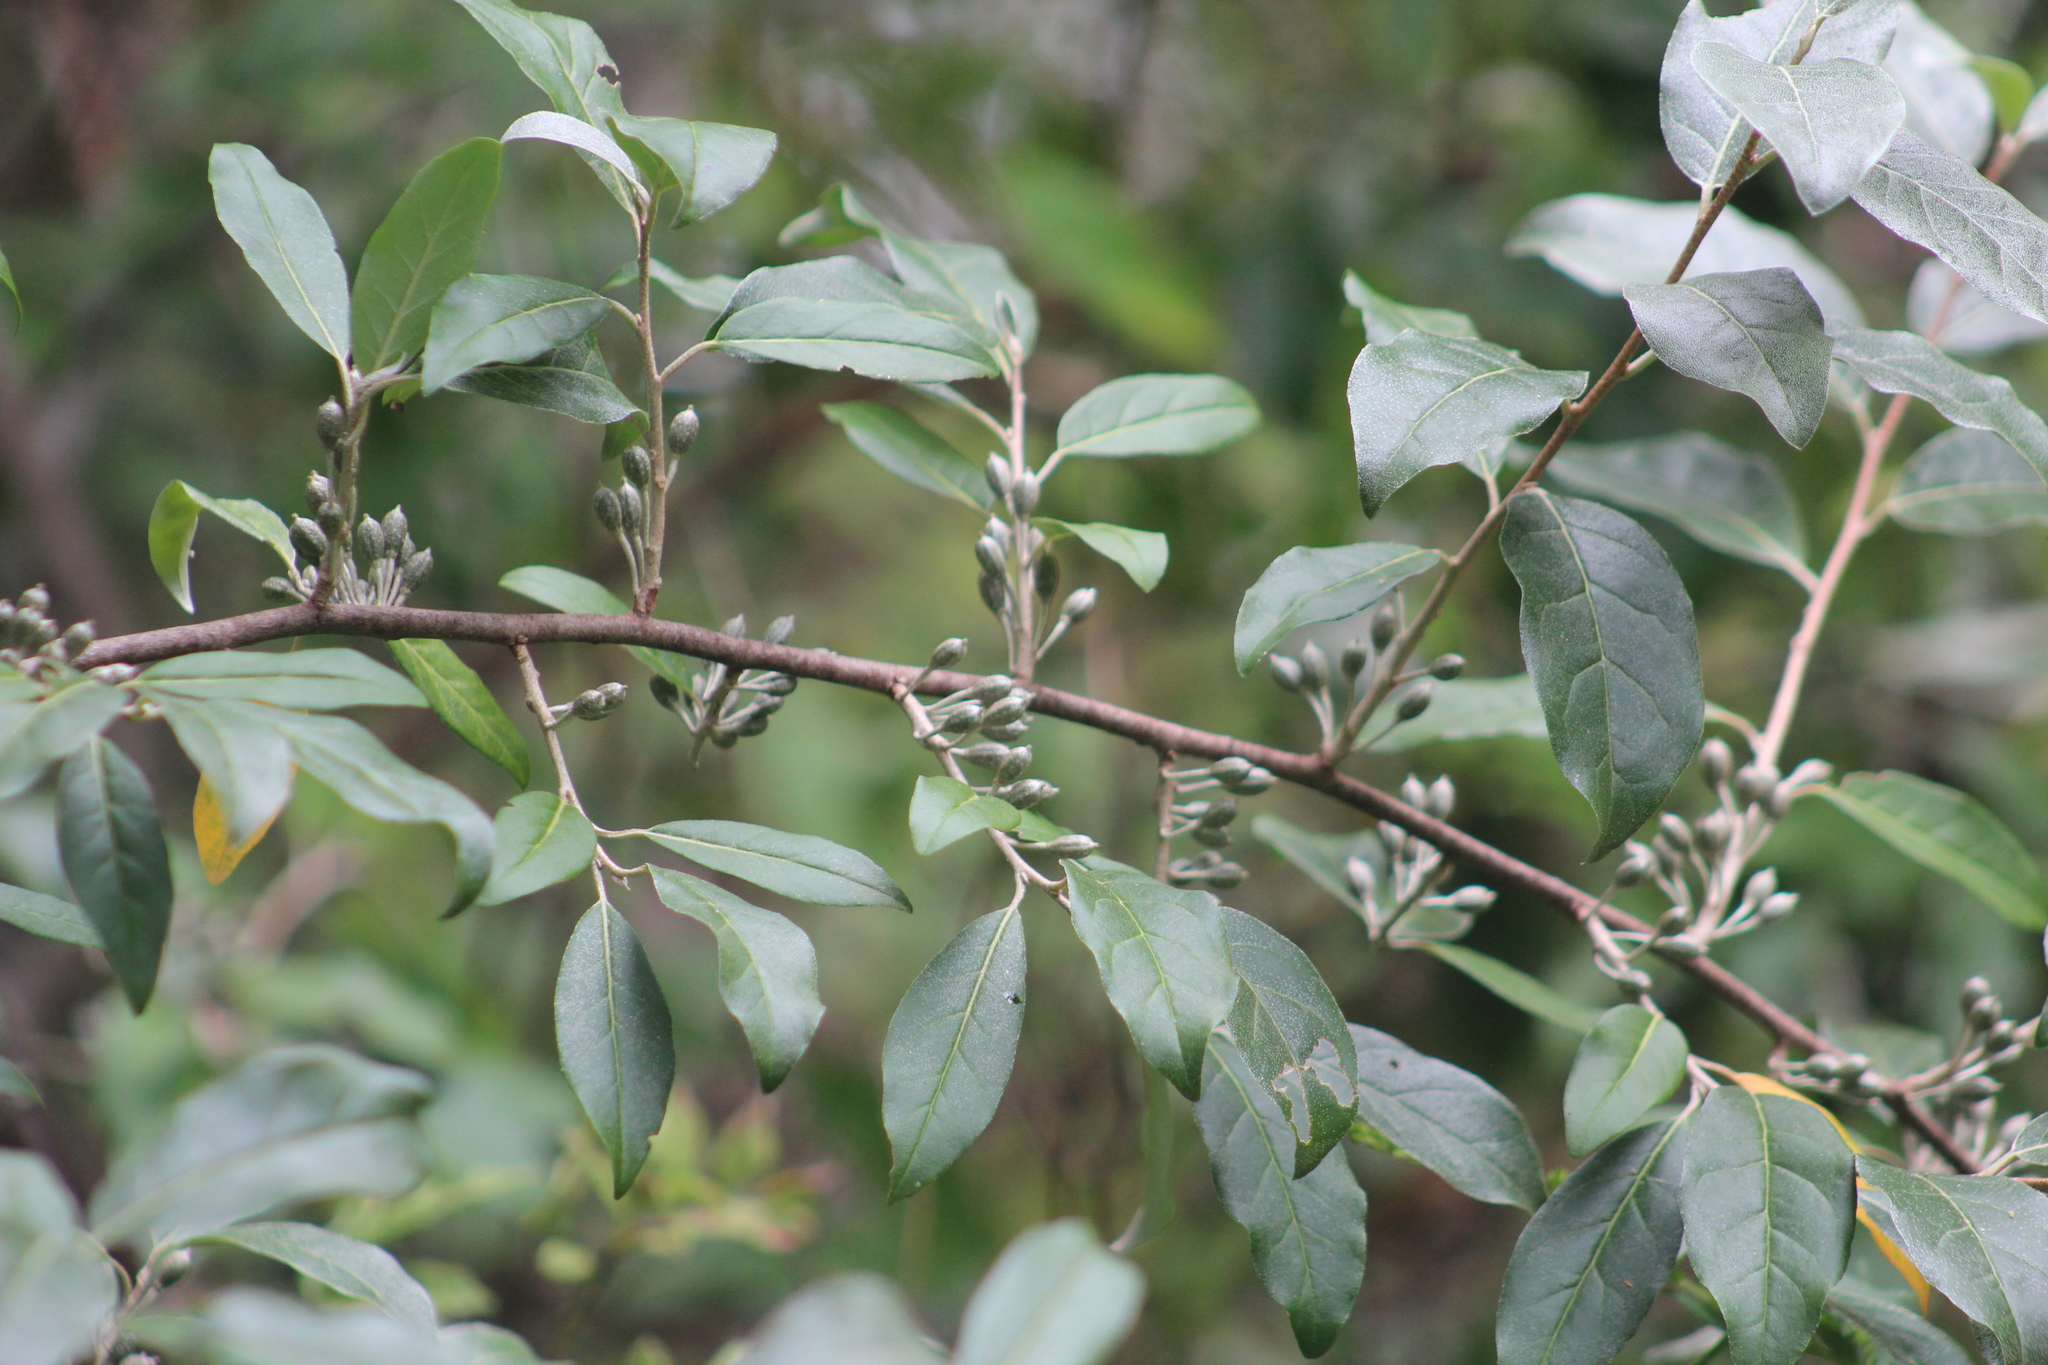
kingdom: Plantae
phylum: Tracheophyta
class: Magnoliopsida
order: Rosales
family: Elaeagnaceae
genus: Elaeagnus
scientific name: Elaeagnus umbellata
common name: Autumn olive
